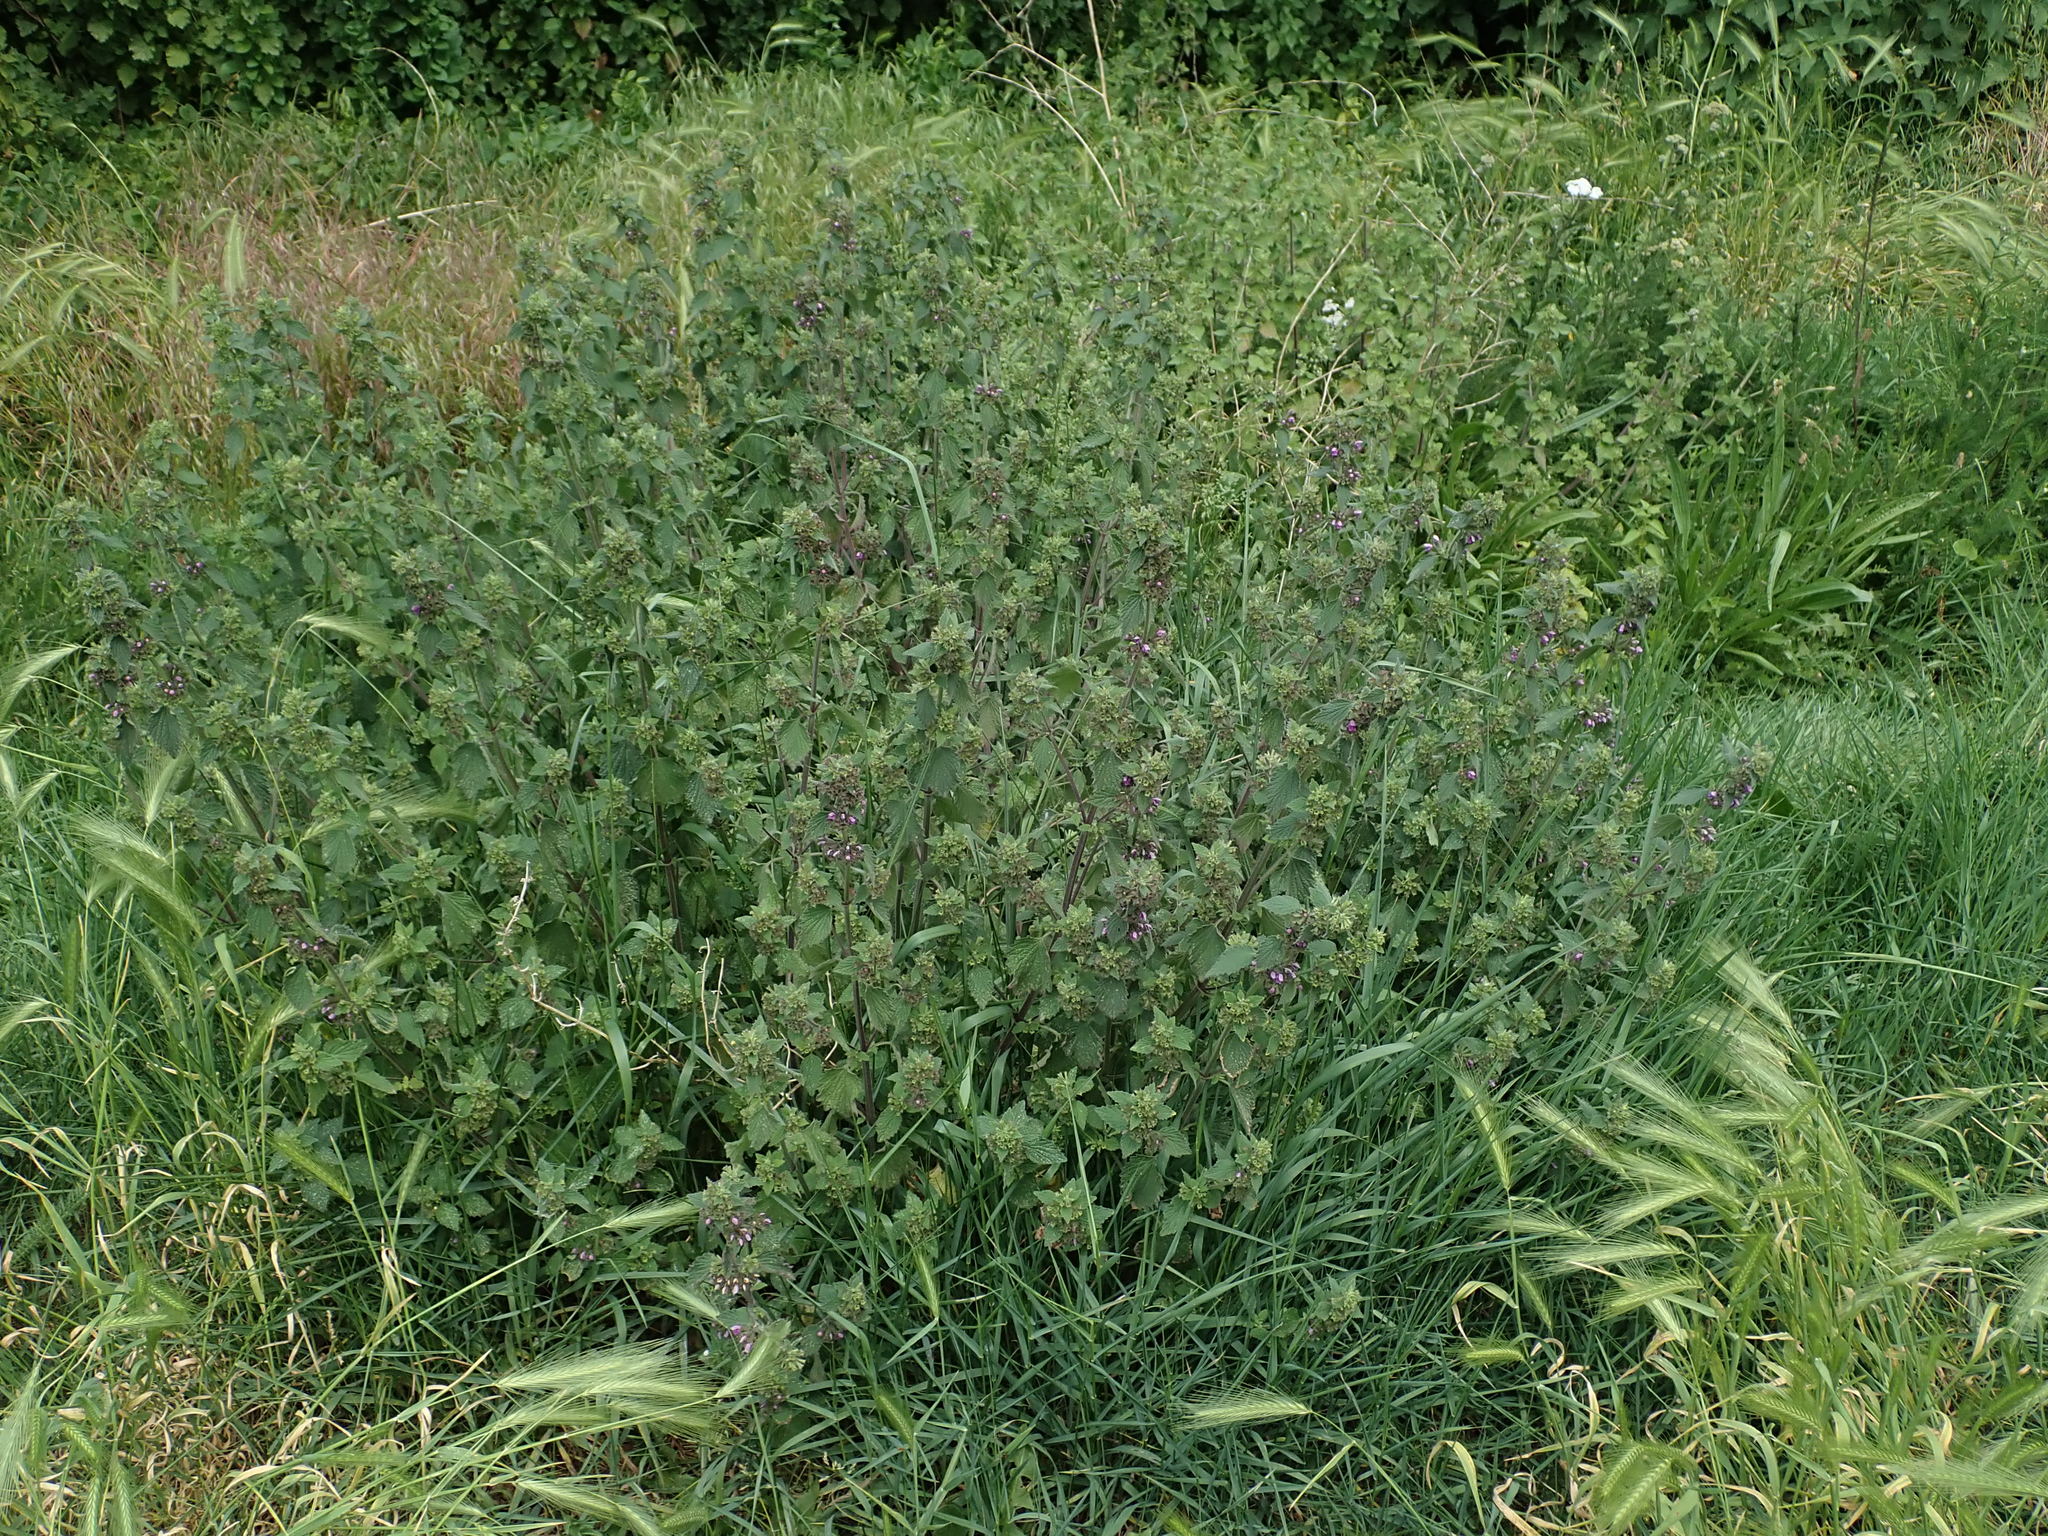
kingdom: Plantae
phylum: Tracheophyta
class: Magnoliopsida
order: Lamiales
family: Lamiaceae
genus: Ballota
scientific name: Ballota nigra
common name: Black horehound
